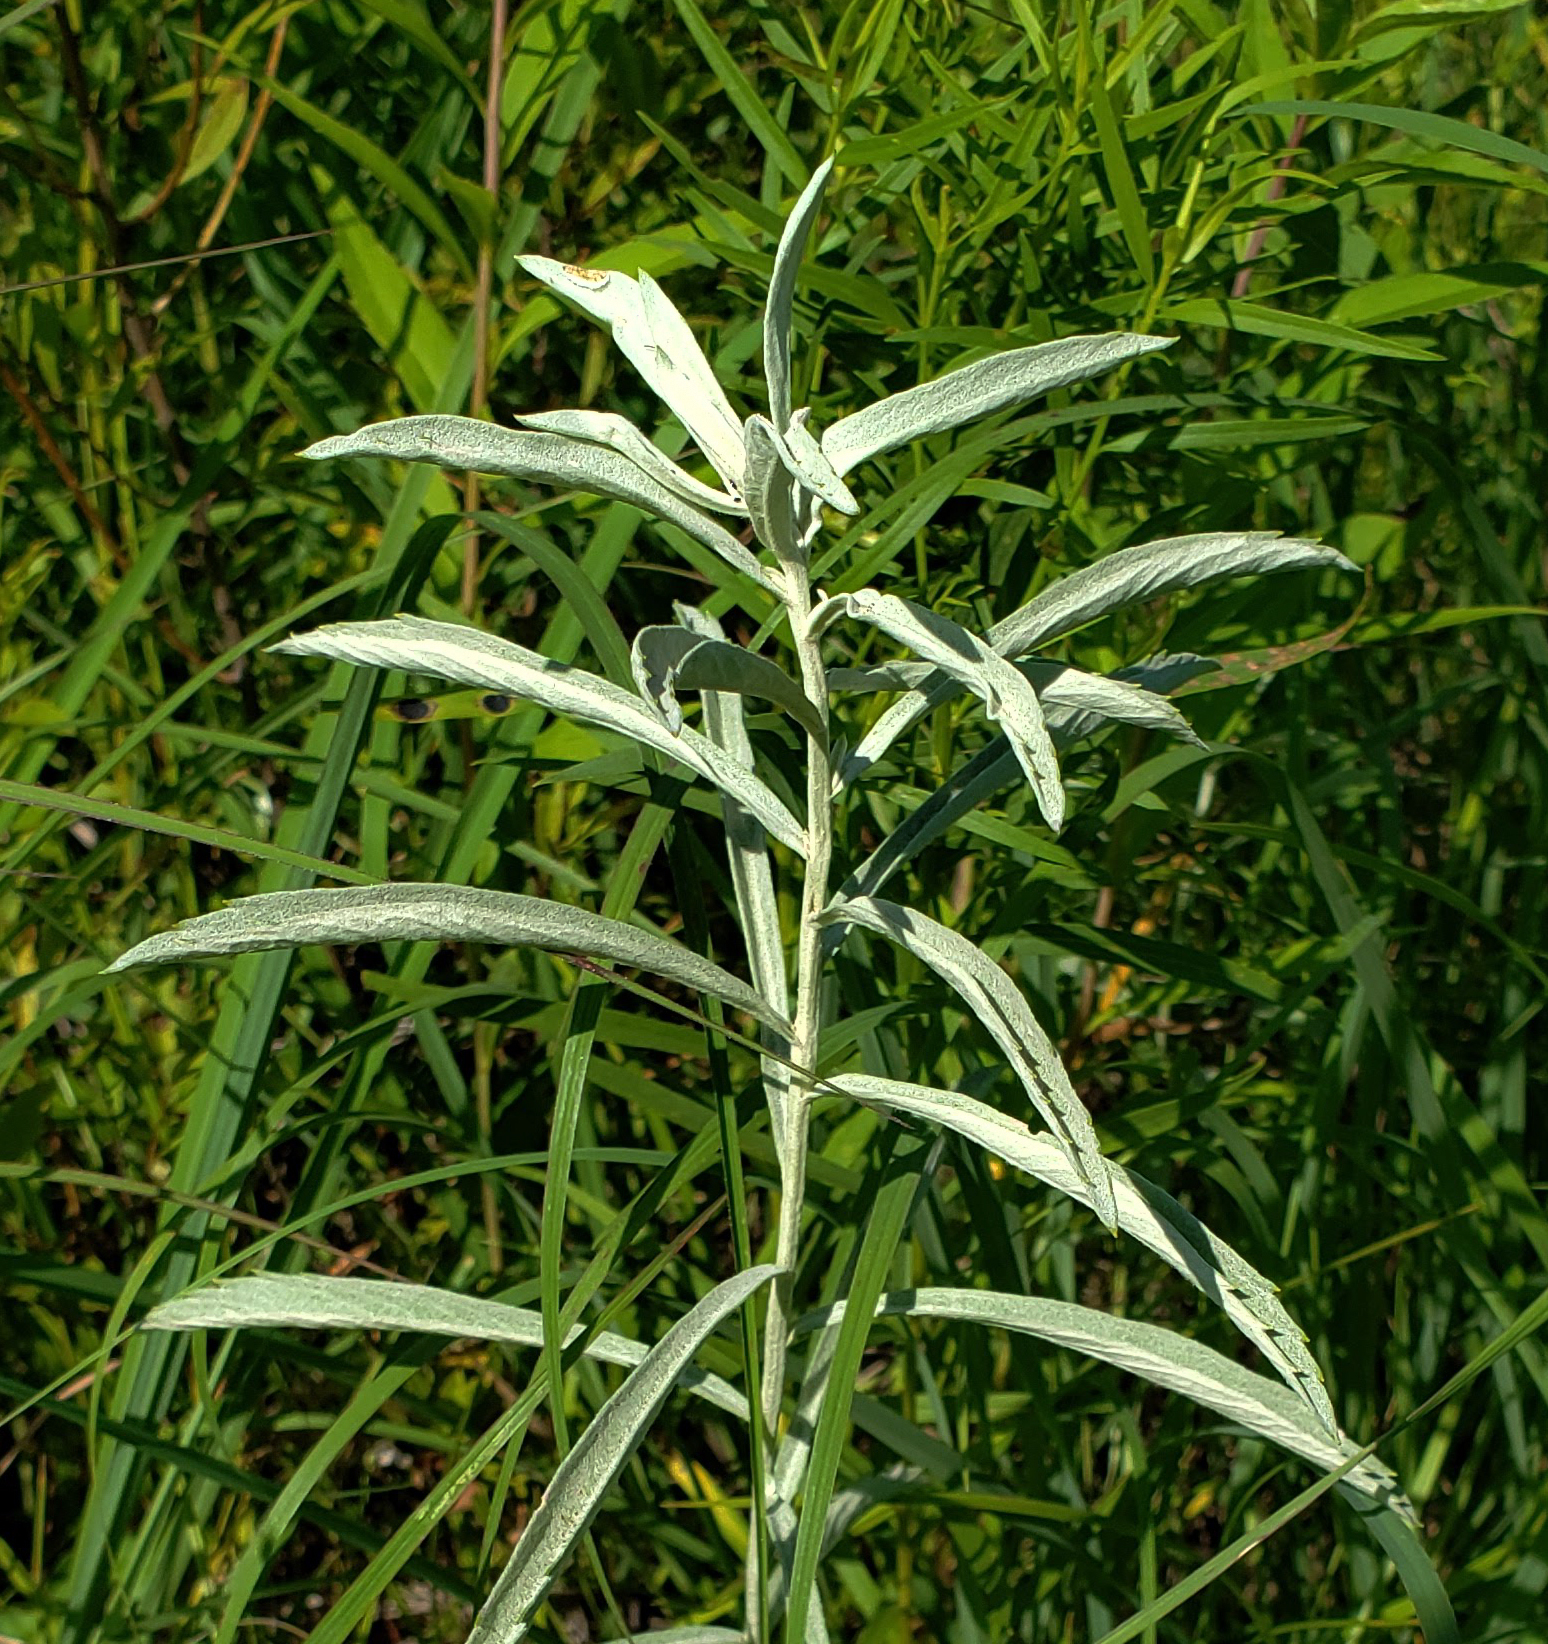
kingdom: Plantae
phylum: Tracheophyta
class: Magnoliopsida
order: Asterales
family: Asteraceae
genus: Artemisia
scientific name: Artemisia ludoviciana
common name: Western mugwort
